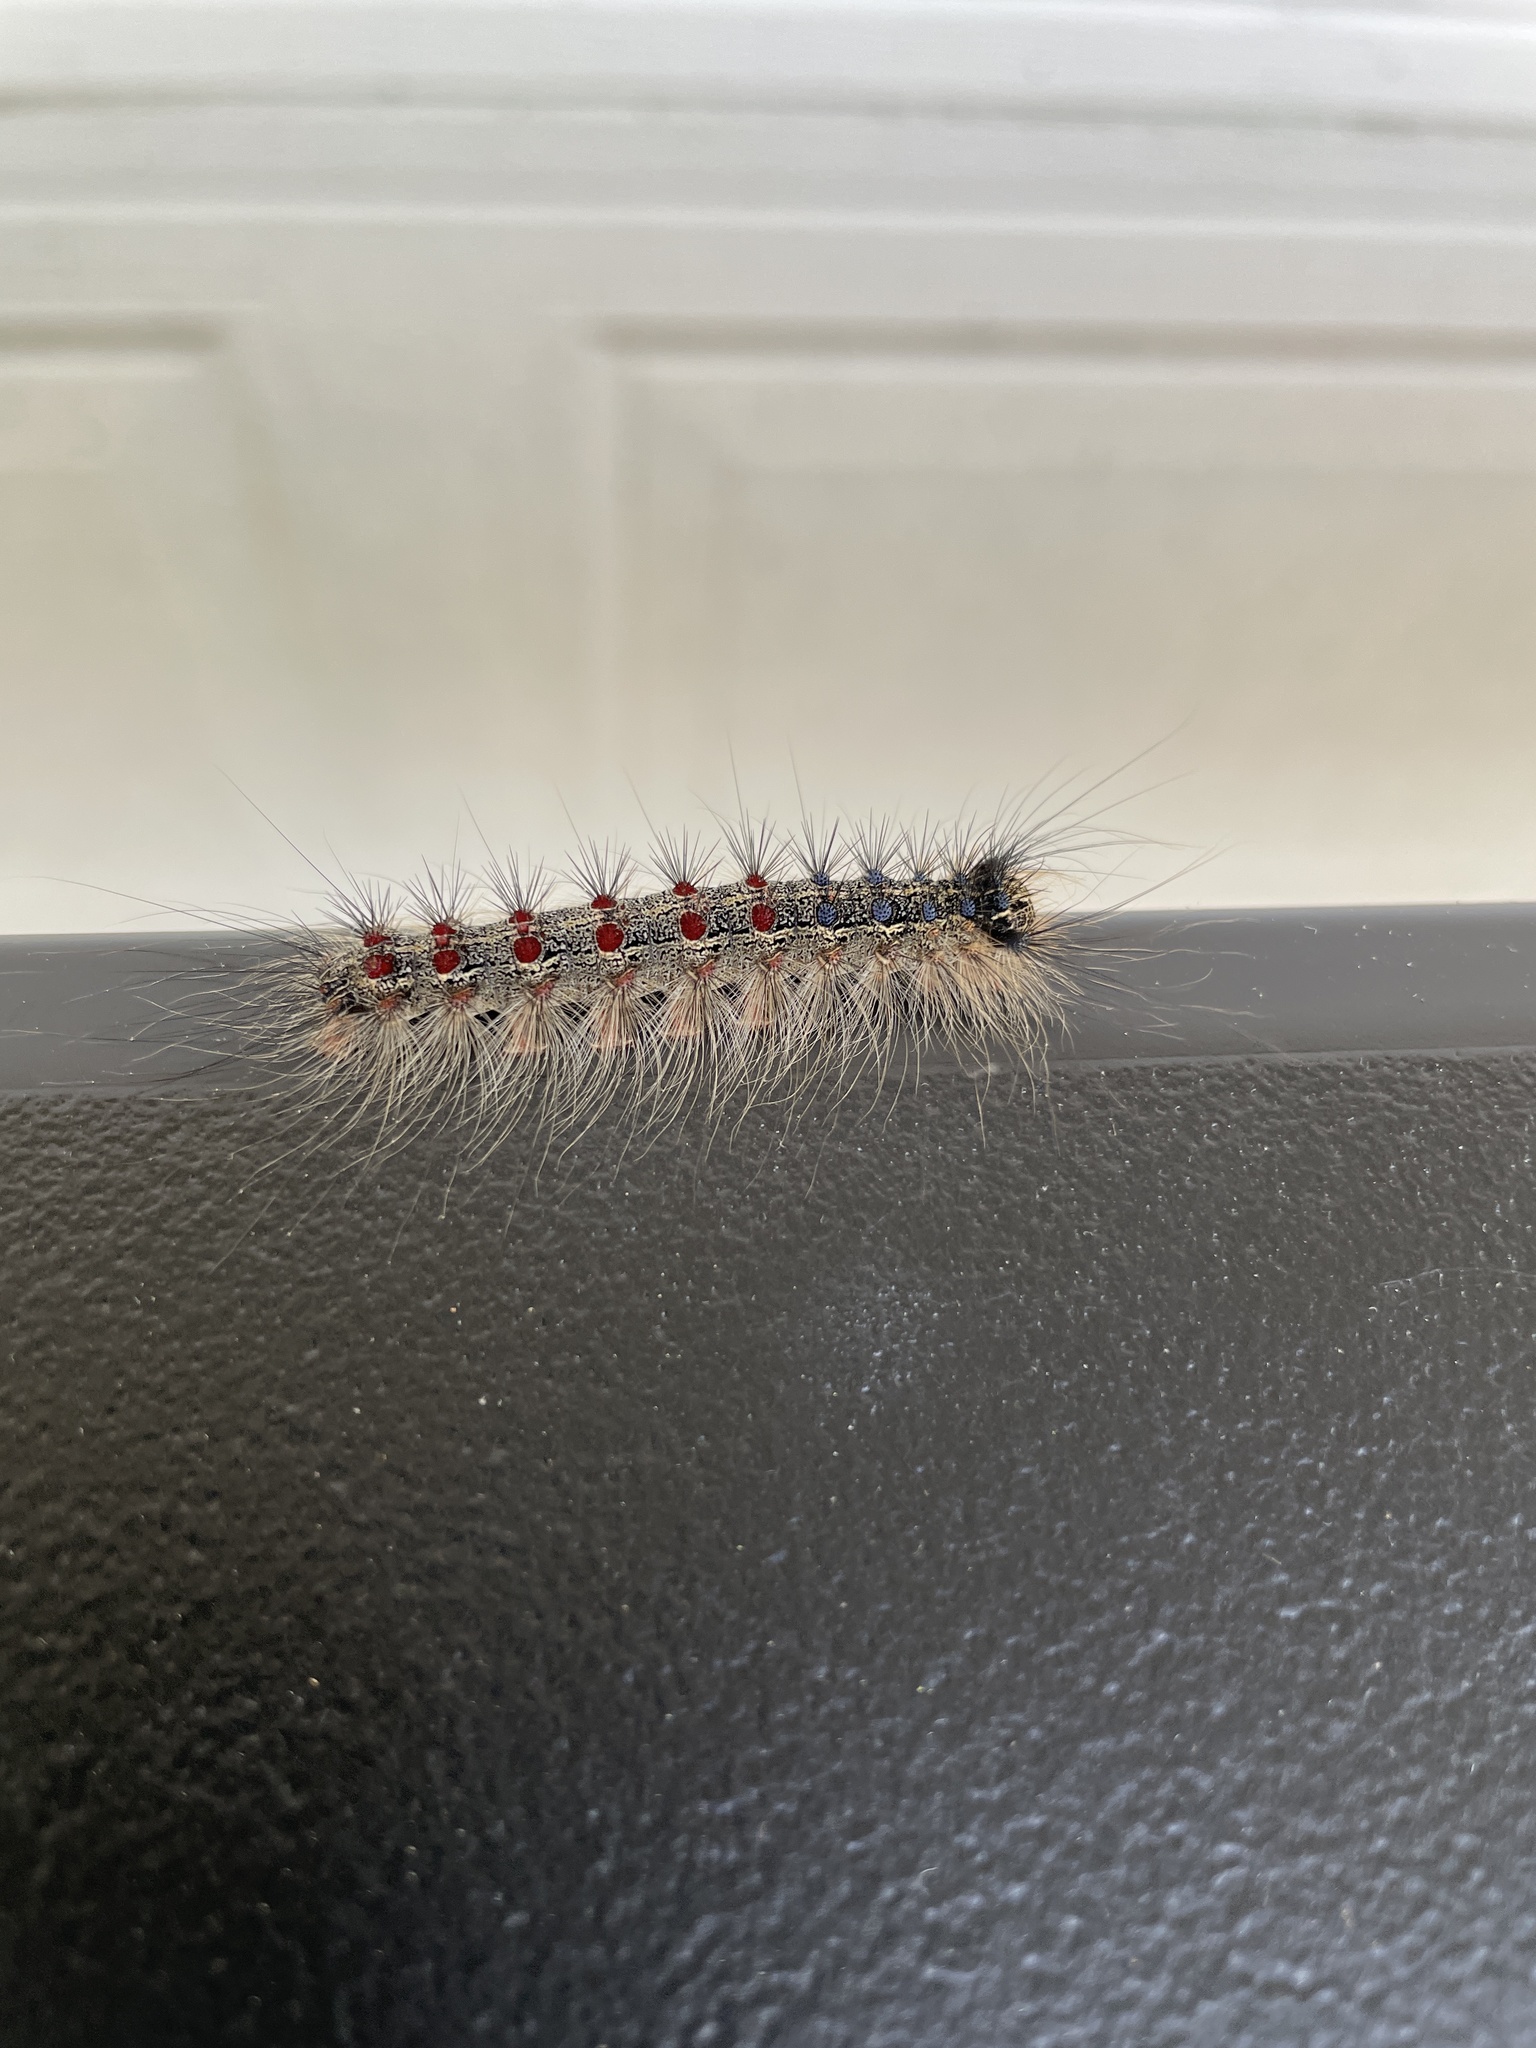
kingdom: Animalia
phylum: Arthropoda
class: Insecta
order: Lepidoptera
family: Erebidae
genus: Lymantria
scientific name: Lymantria dispar
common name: Gypsy moth
